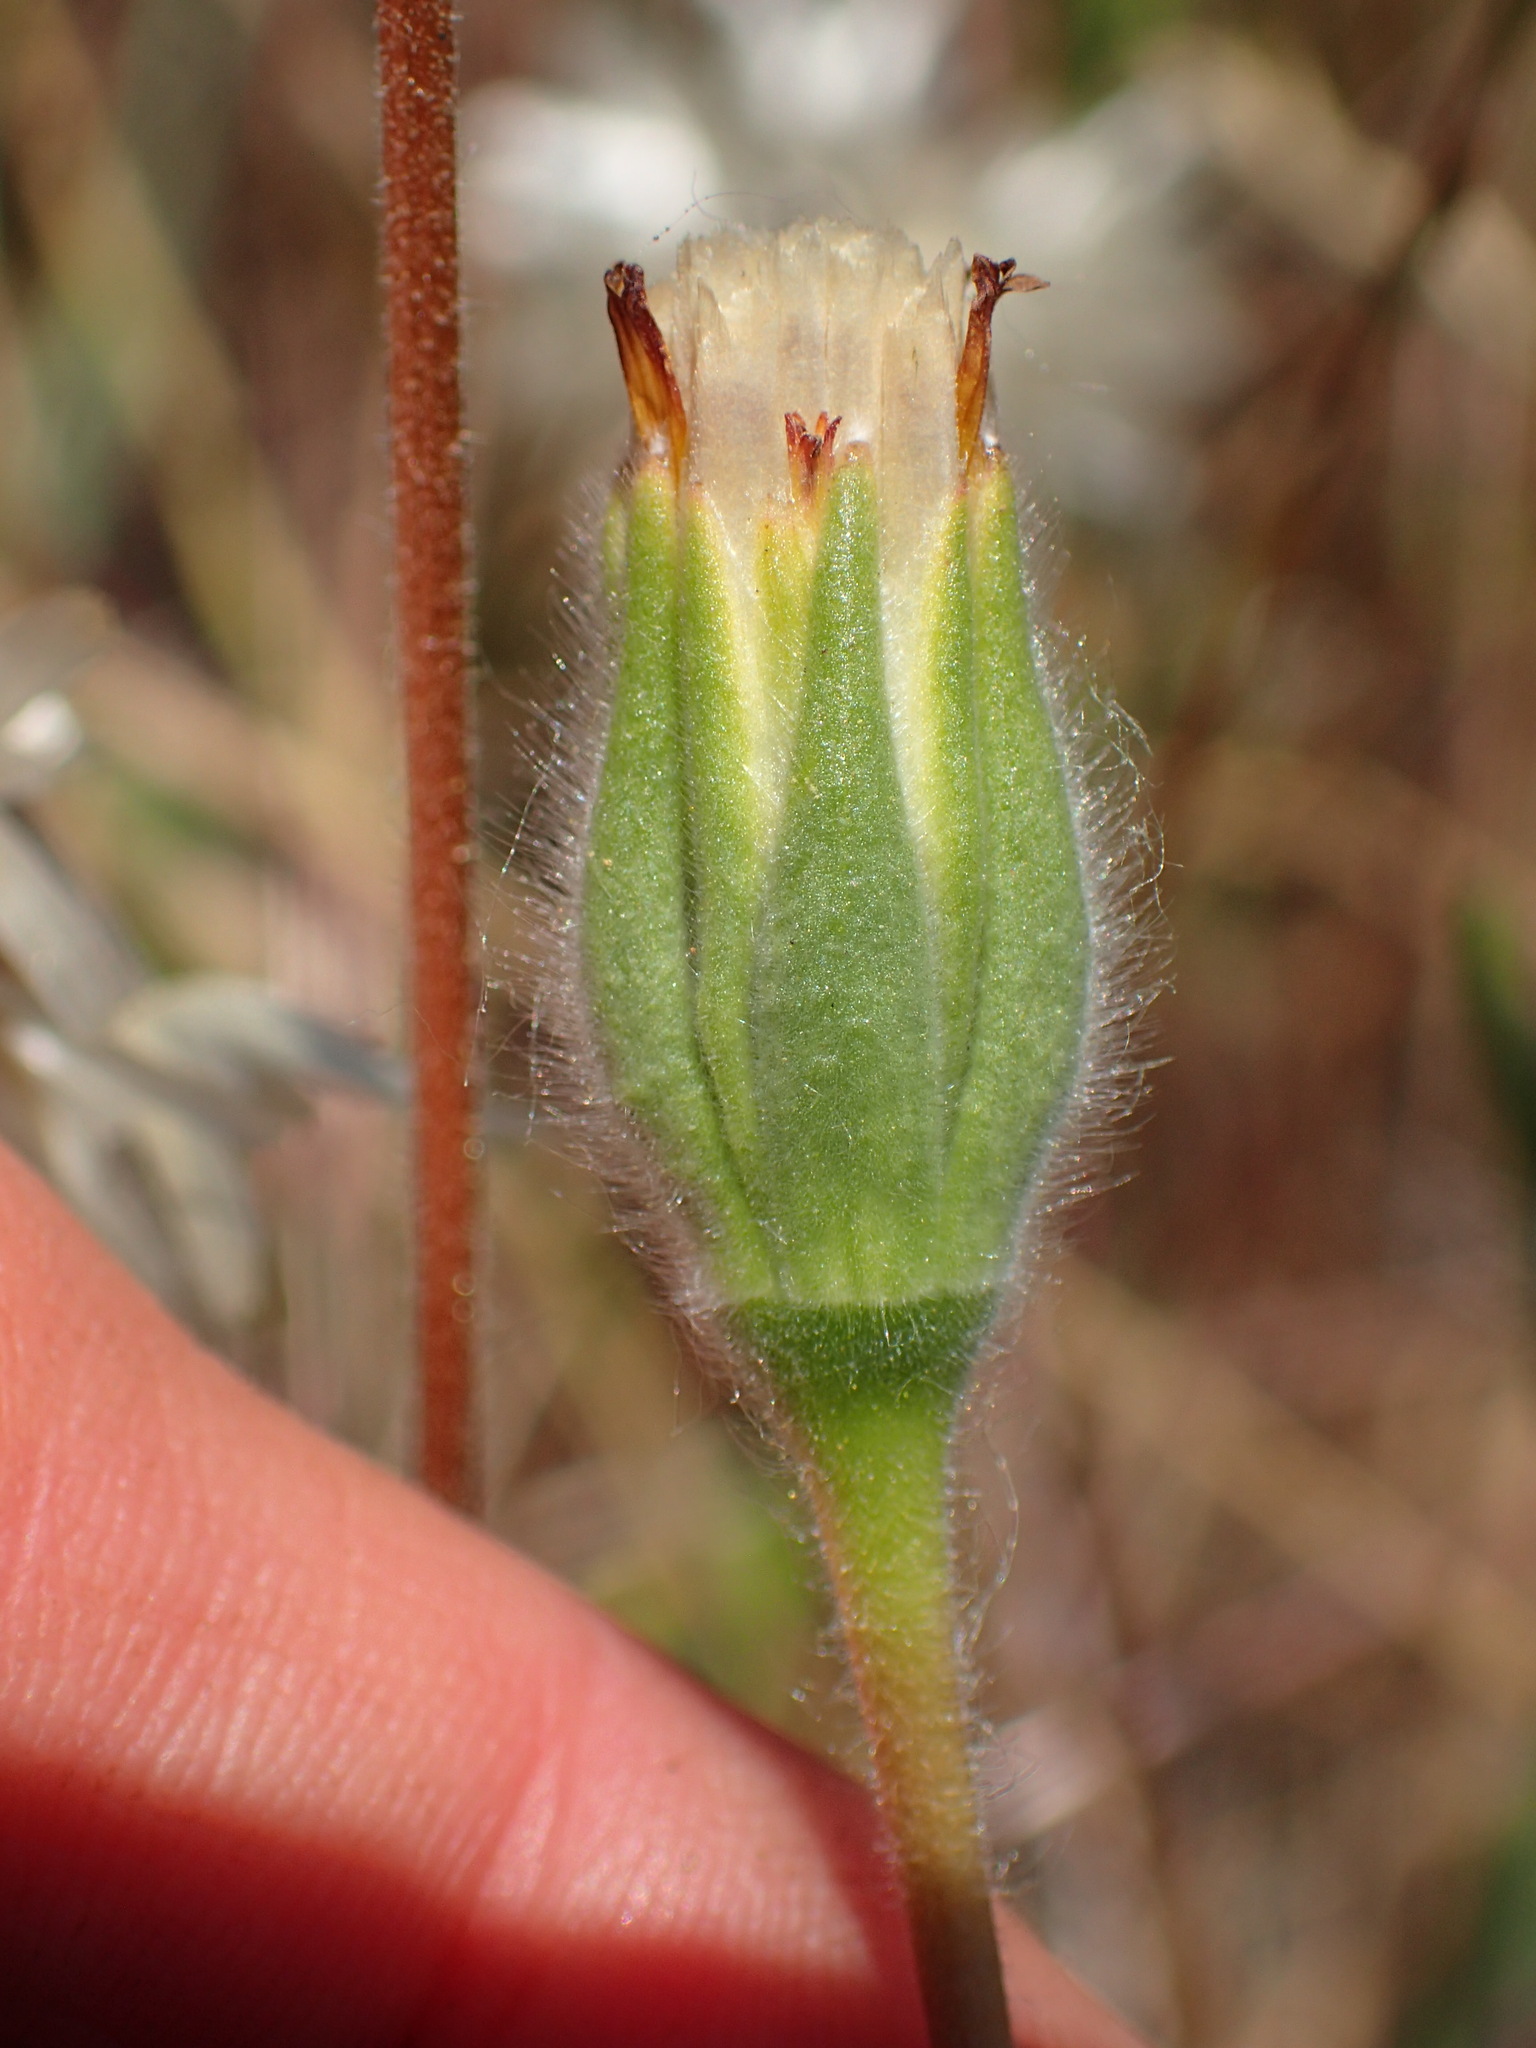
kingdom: Plantae
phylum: Tracheophyta
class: Magnoliopsida
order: Asterales
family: Asteraceae
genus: Achyrachaena
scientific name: Achyrachaena mollis
